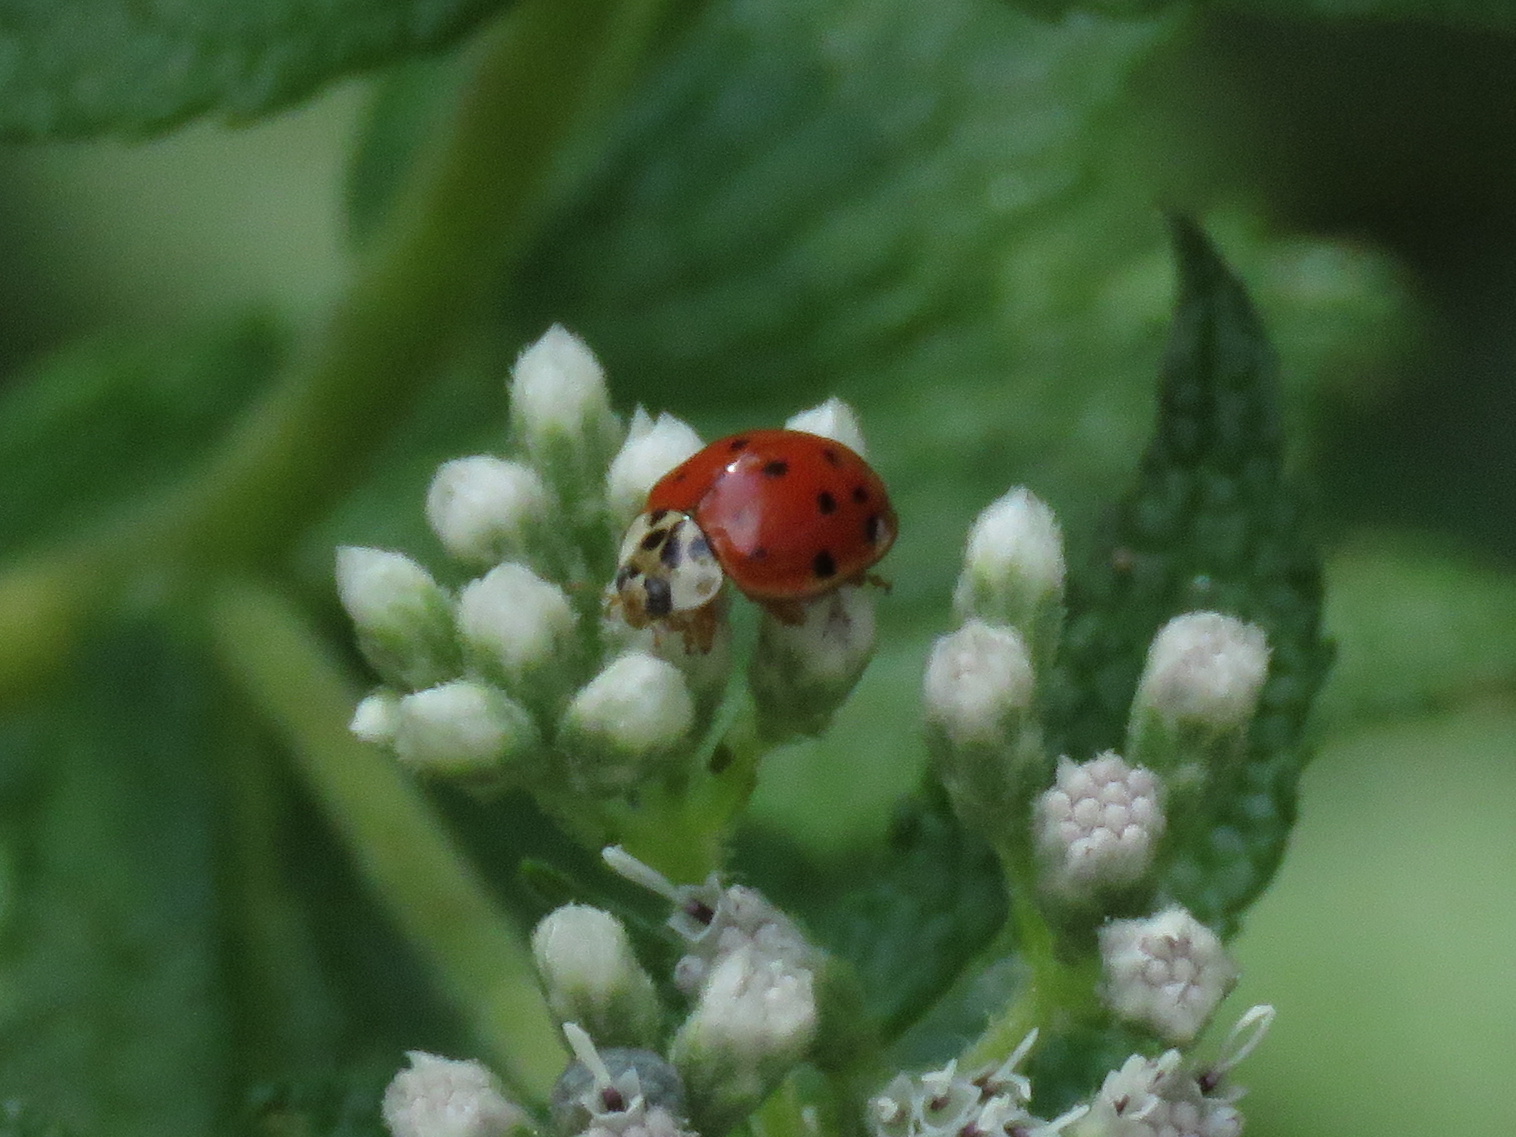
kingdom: Animalia
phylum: Arthropoda
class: Insecta
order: Coleoptera
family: Coccinellidae
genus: Harmonia
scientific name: Harmonia axyridis
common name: Harlequin ladybird
